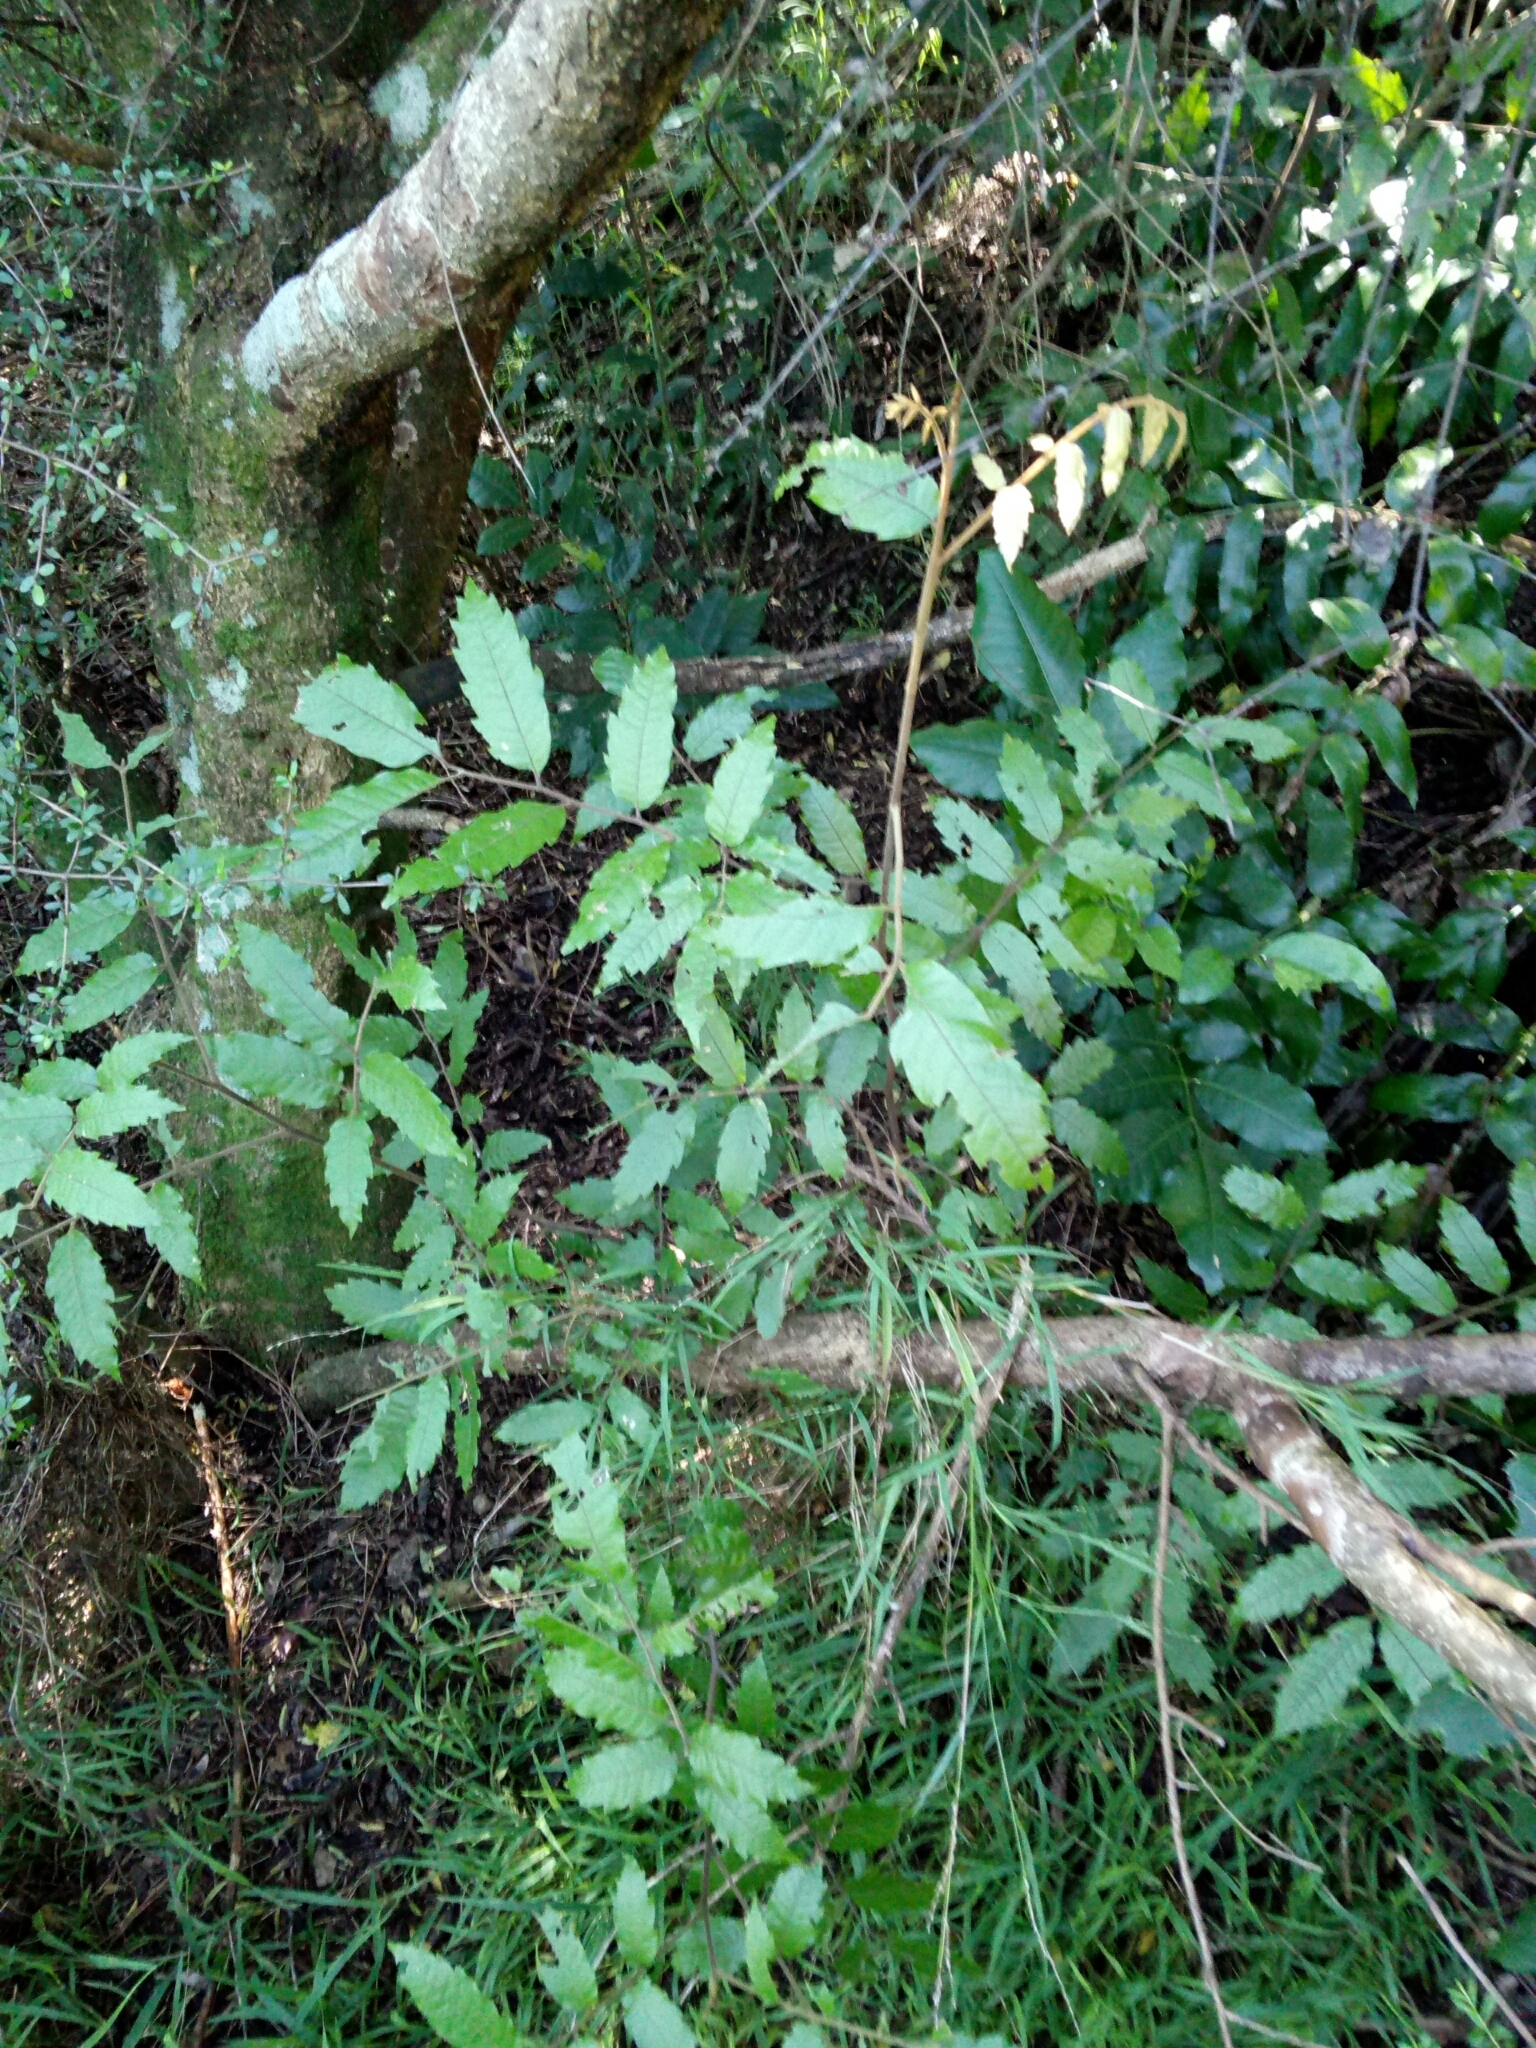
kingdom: Plantae
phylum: Tracheophyta
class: Magnoliopsida
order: Sapindales
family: Sapindaceae
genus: Alectryon
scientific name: Alectryon excelsus
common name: Three kings titoki
